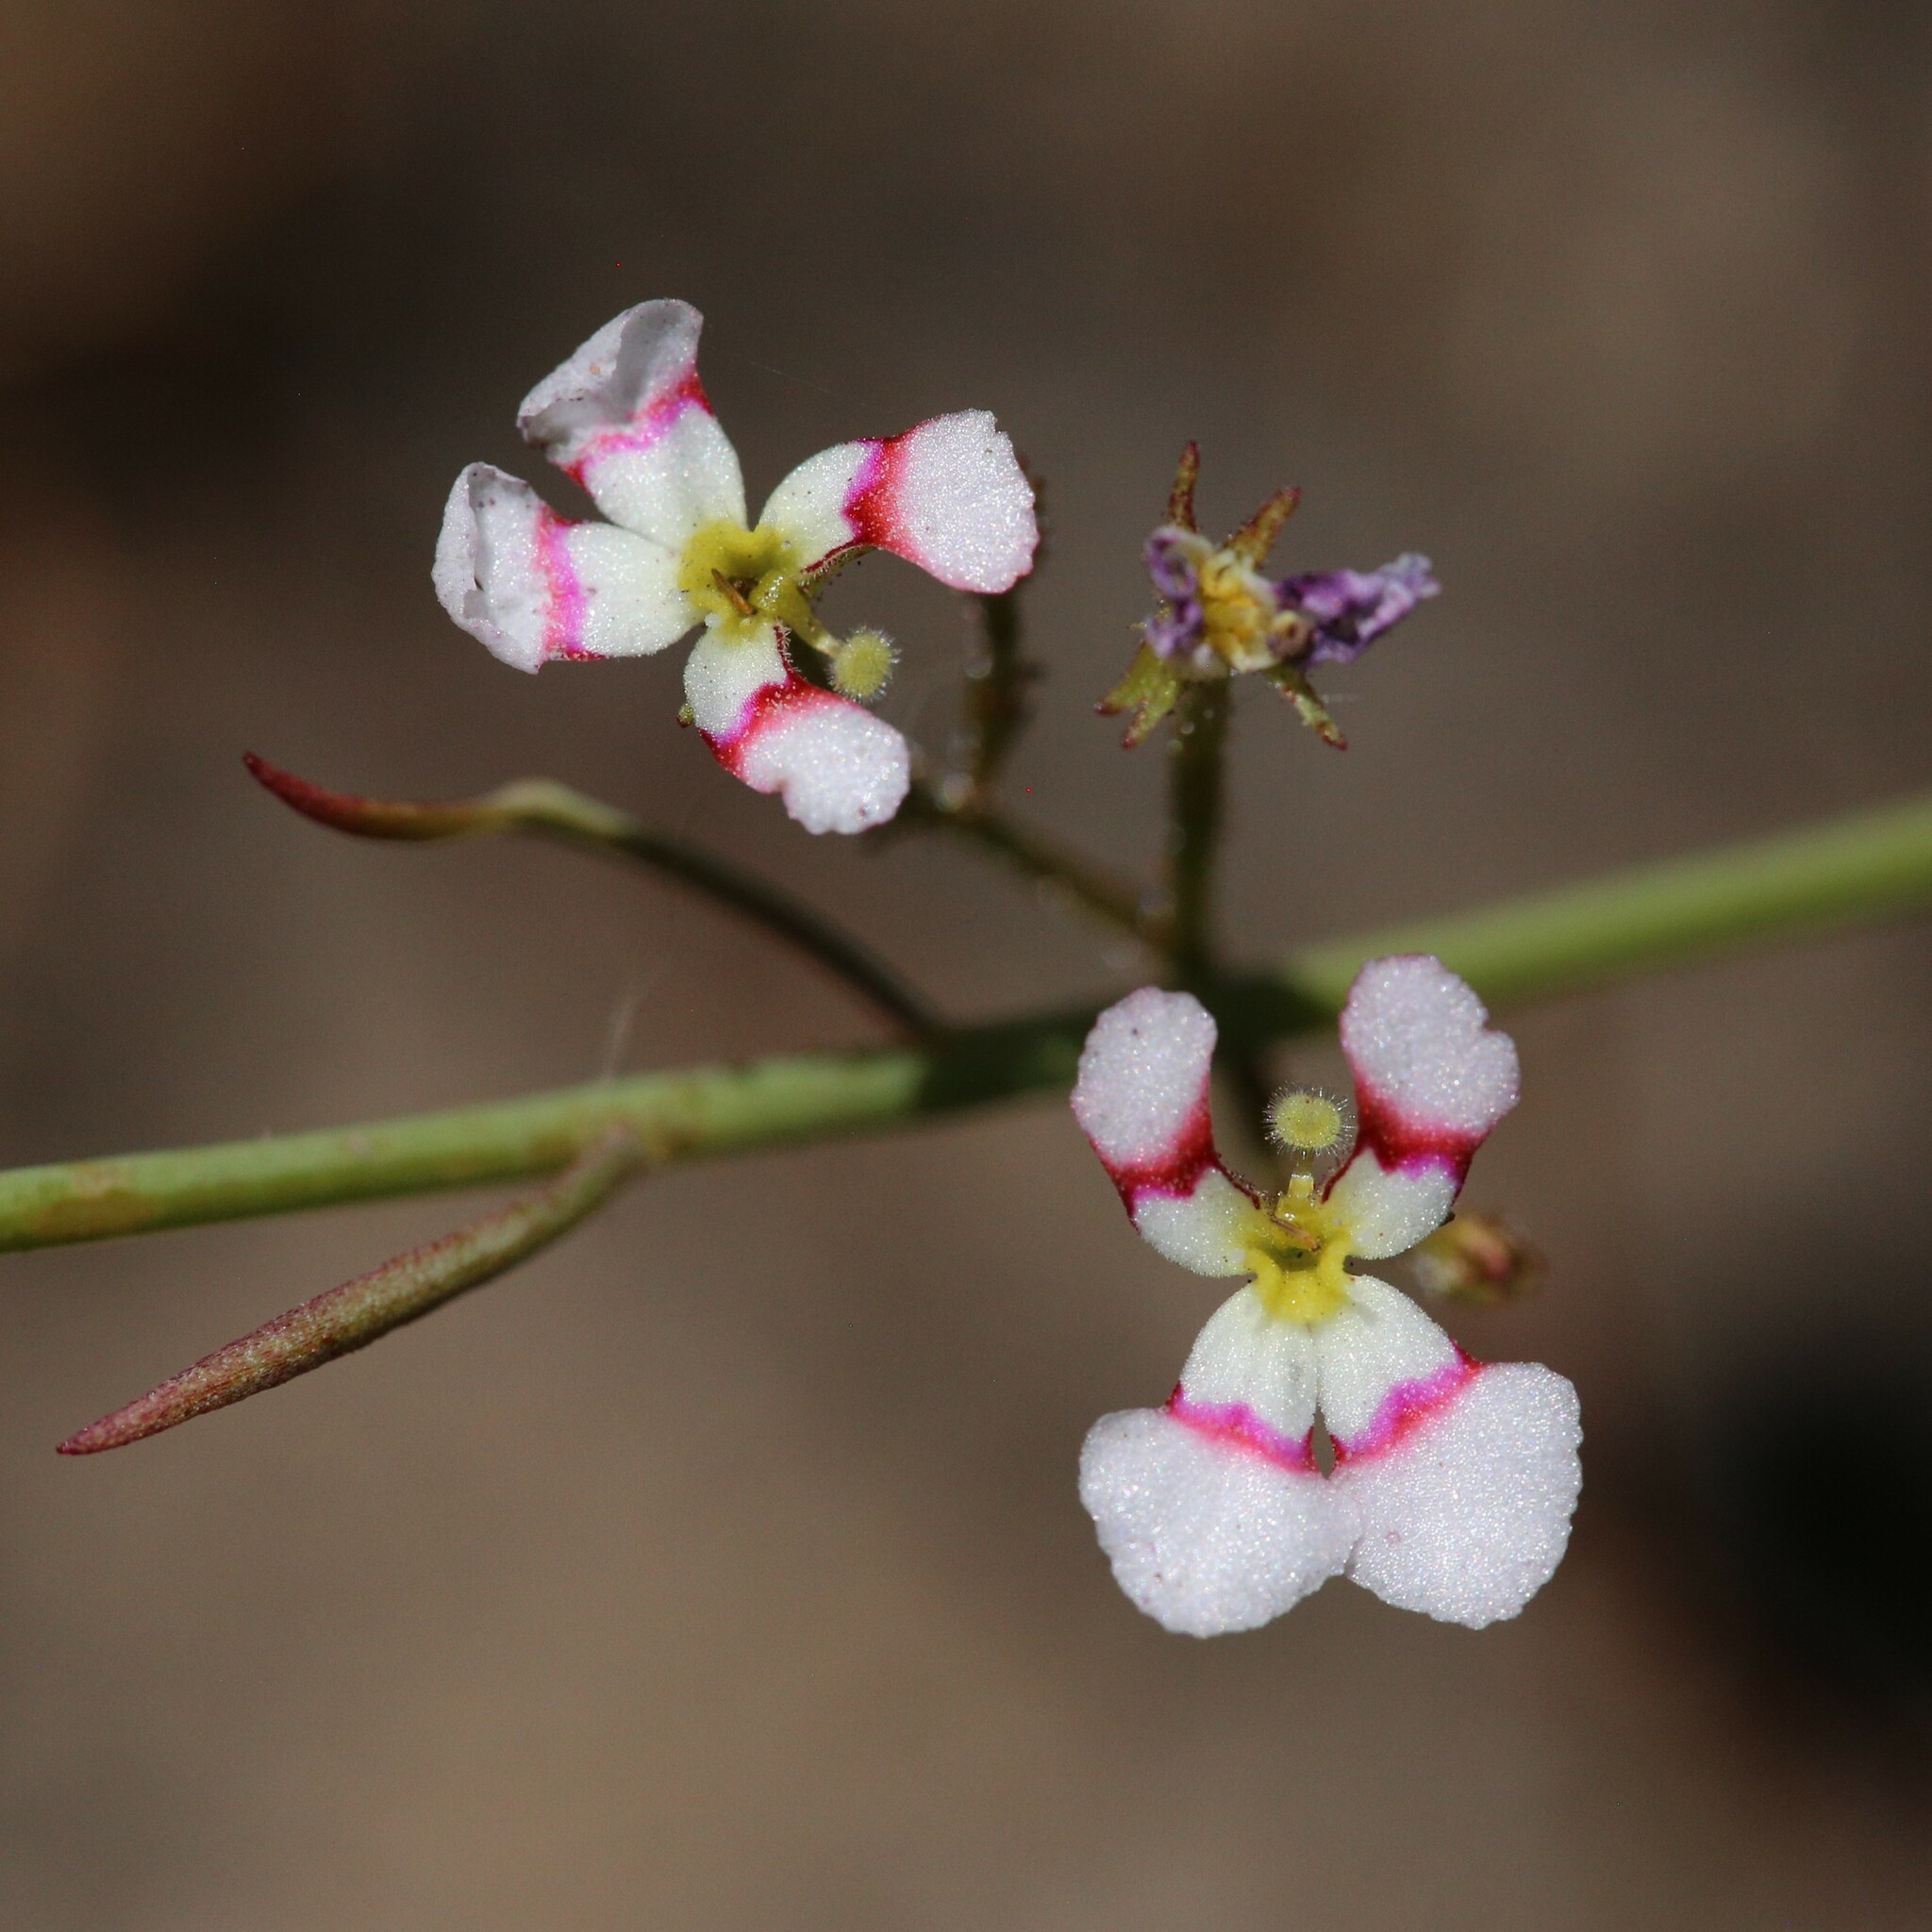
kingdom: Plantae
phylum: Tracheophyta
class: Magnoliopsida
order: Asterales
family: Stylidiaceae
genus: Stylidium
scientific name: Stylidium utricularioides
